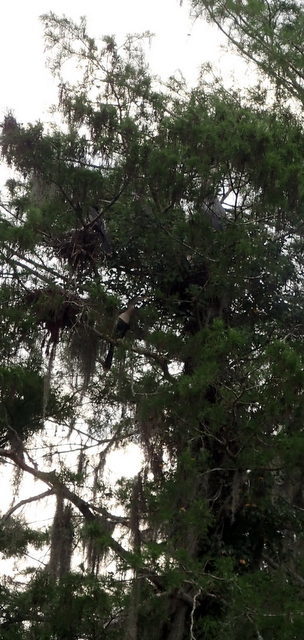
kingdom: Animalia
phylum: Chordata
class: Aves
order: Suliformes
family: Anhingidae
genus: Anhinga
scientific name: Anhinga anhinga
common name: Anhinga
